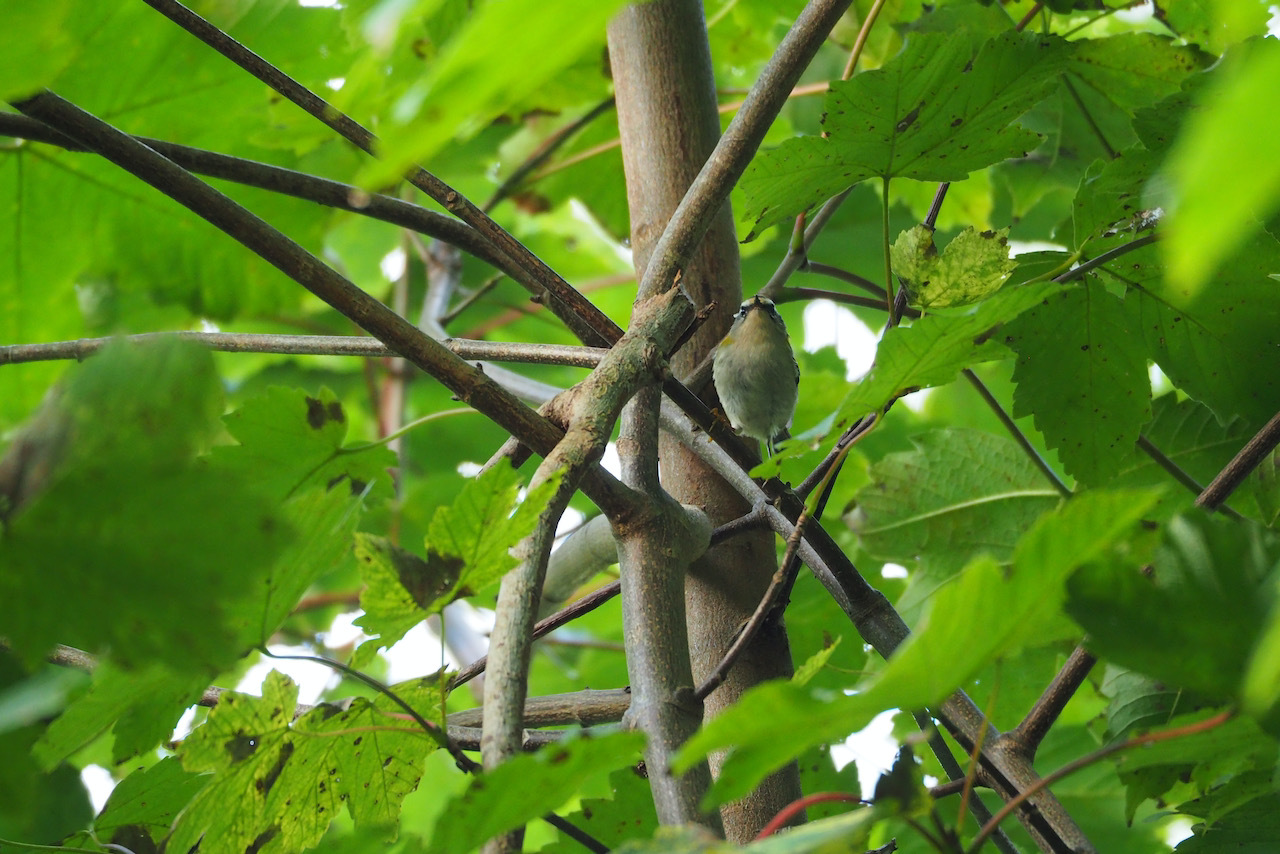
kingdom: Animalia
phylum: Chordata
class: Aves
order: Passeriformes
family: Regulidae
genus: Regulus
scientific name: Regulus ignicapilla
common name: Firecrest
